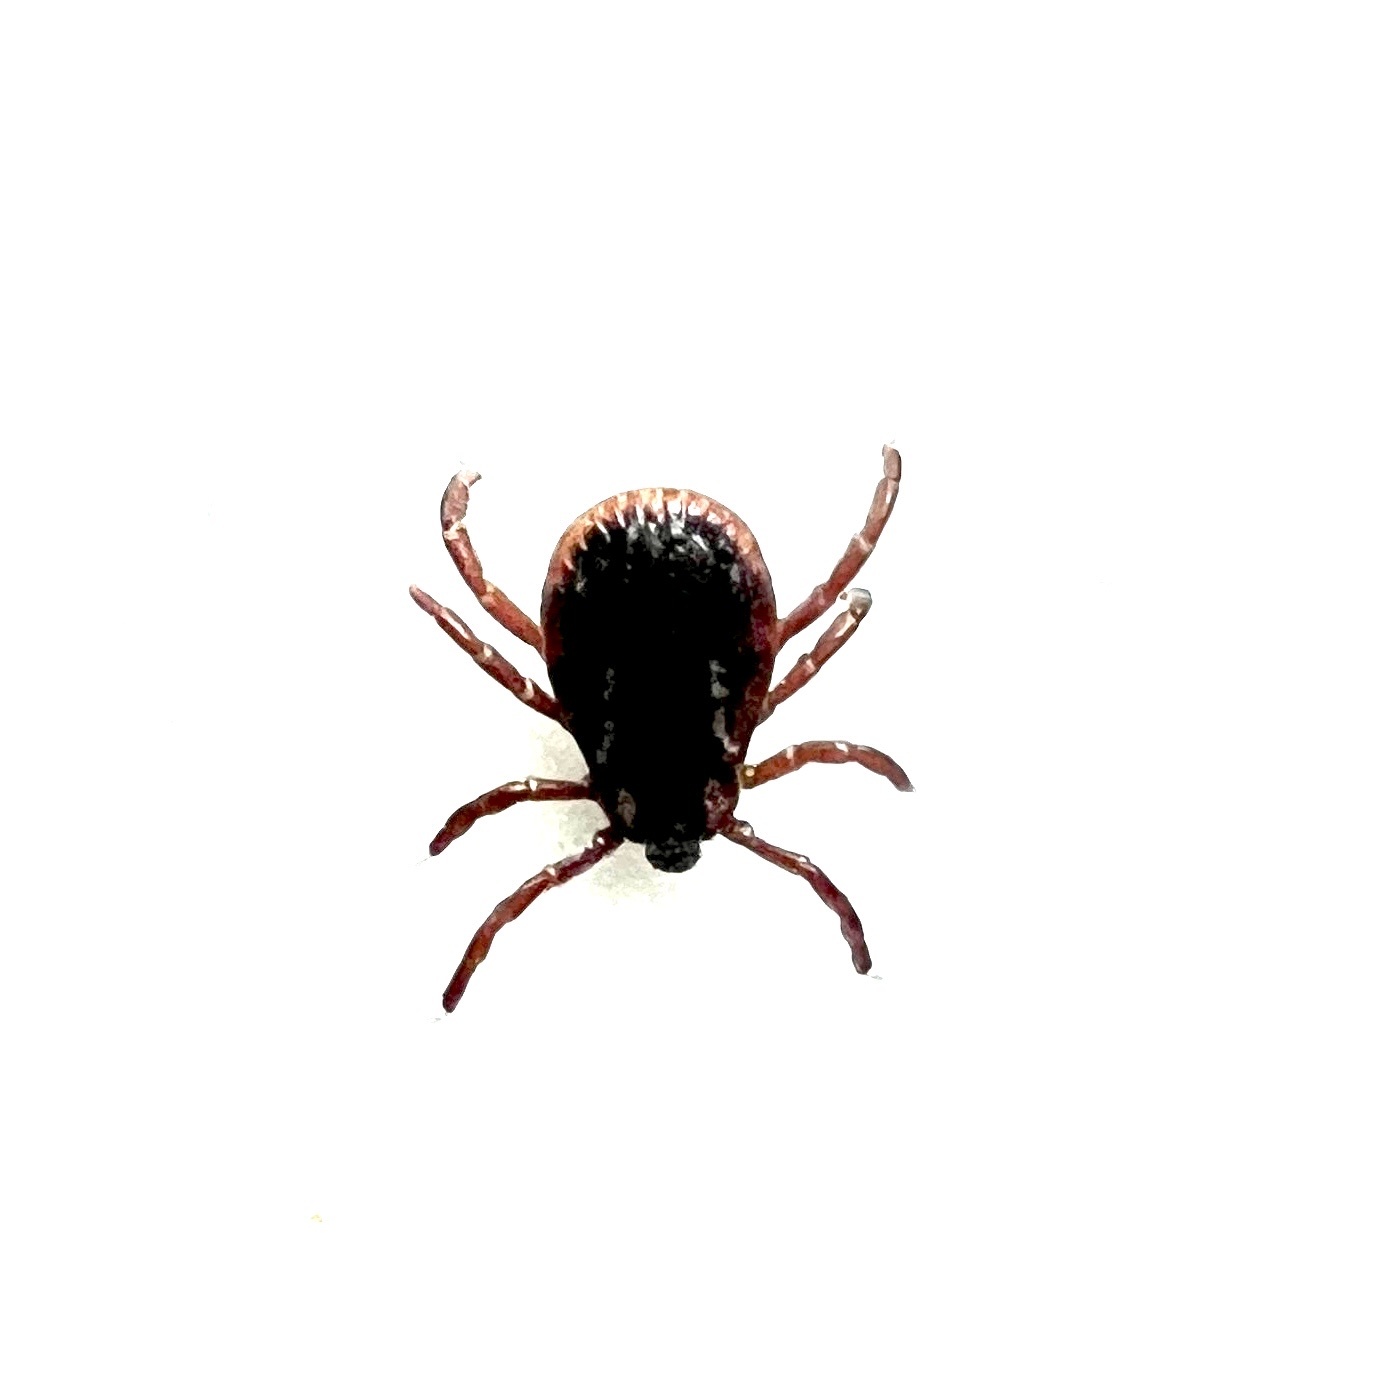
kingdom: Animalia
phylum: Arthropoda
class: Arachnida
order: Ixodida
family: Ixodidae
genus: Dermacentor
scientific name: Dermacentor variabilis
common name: American dog tick
